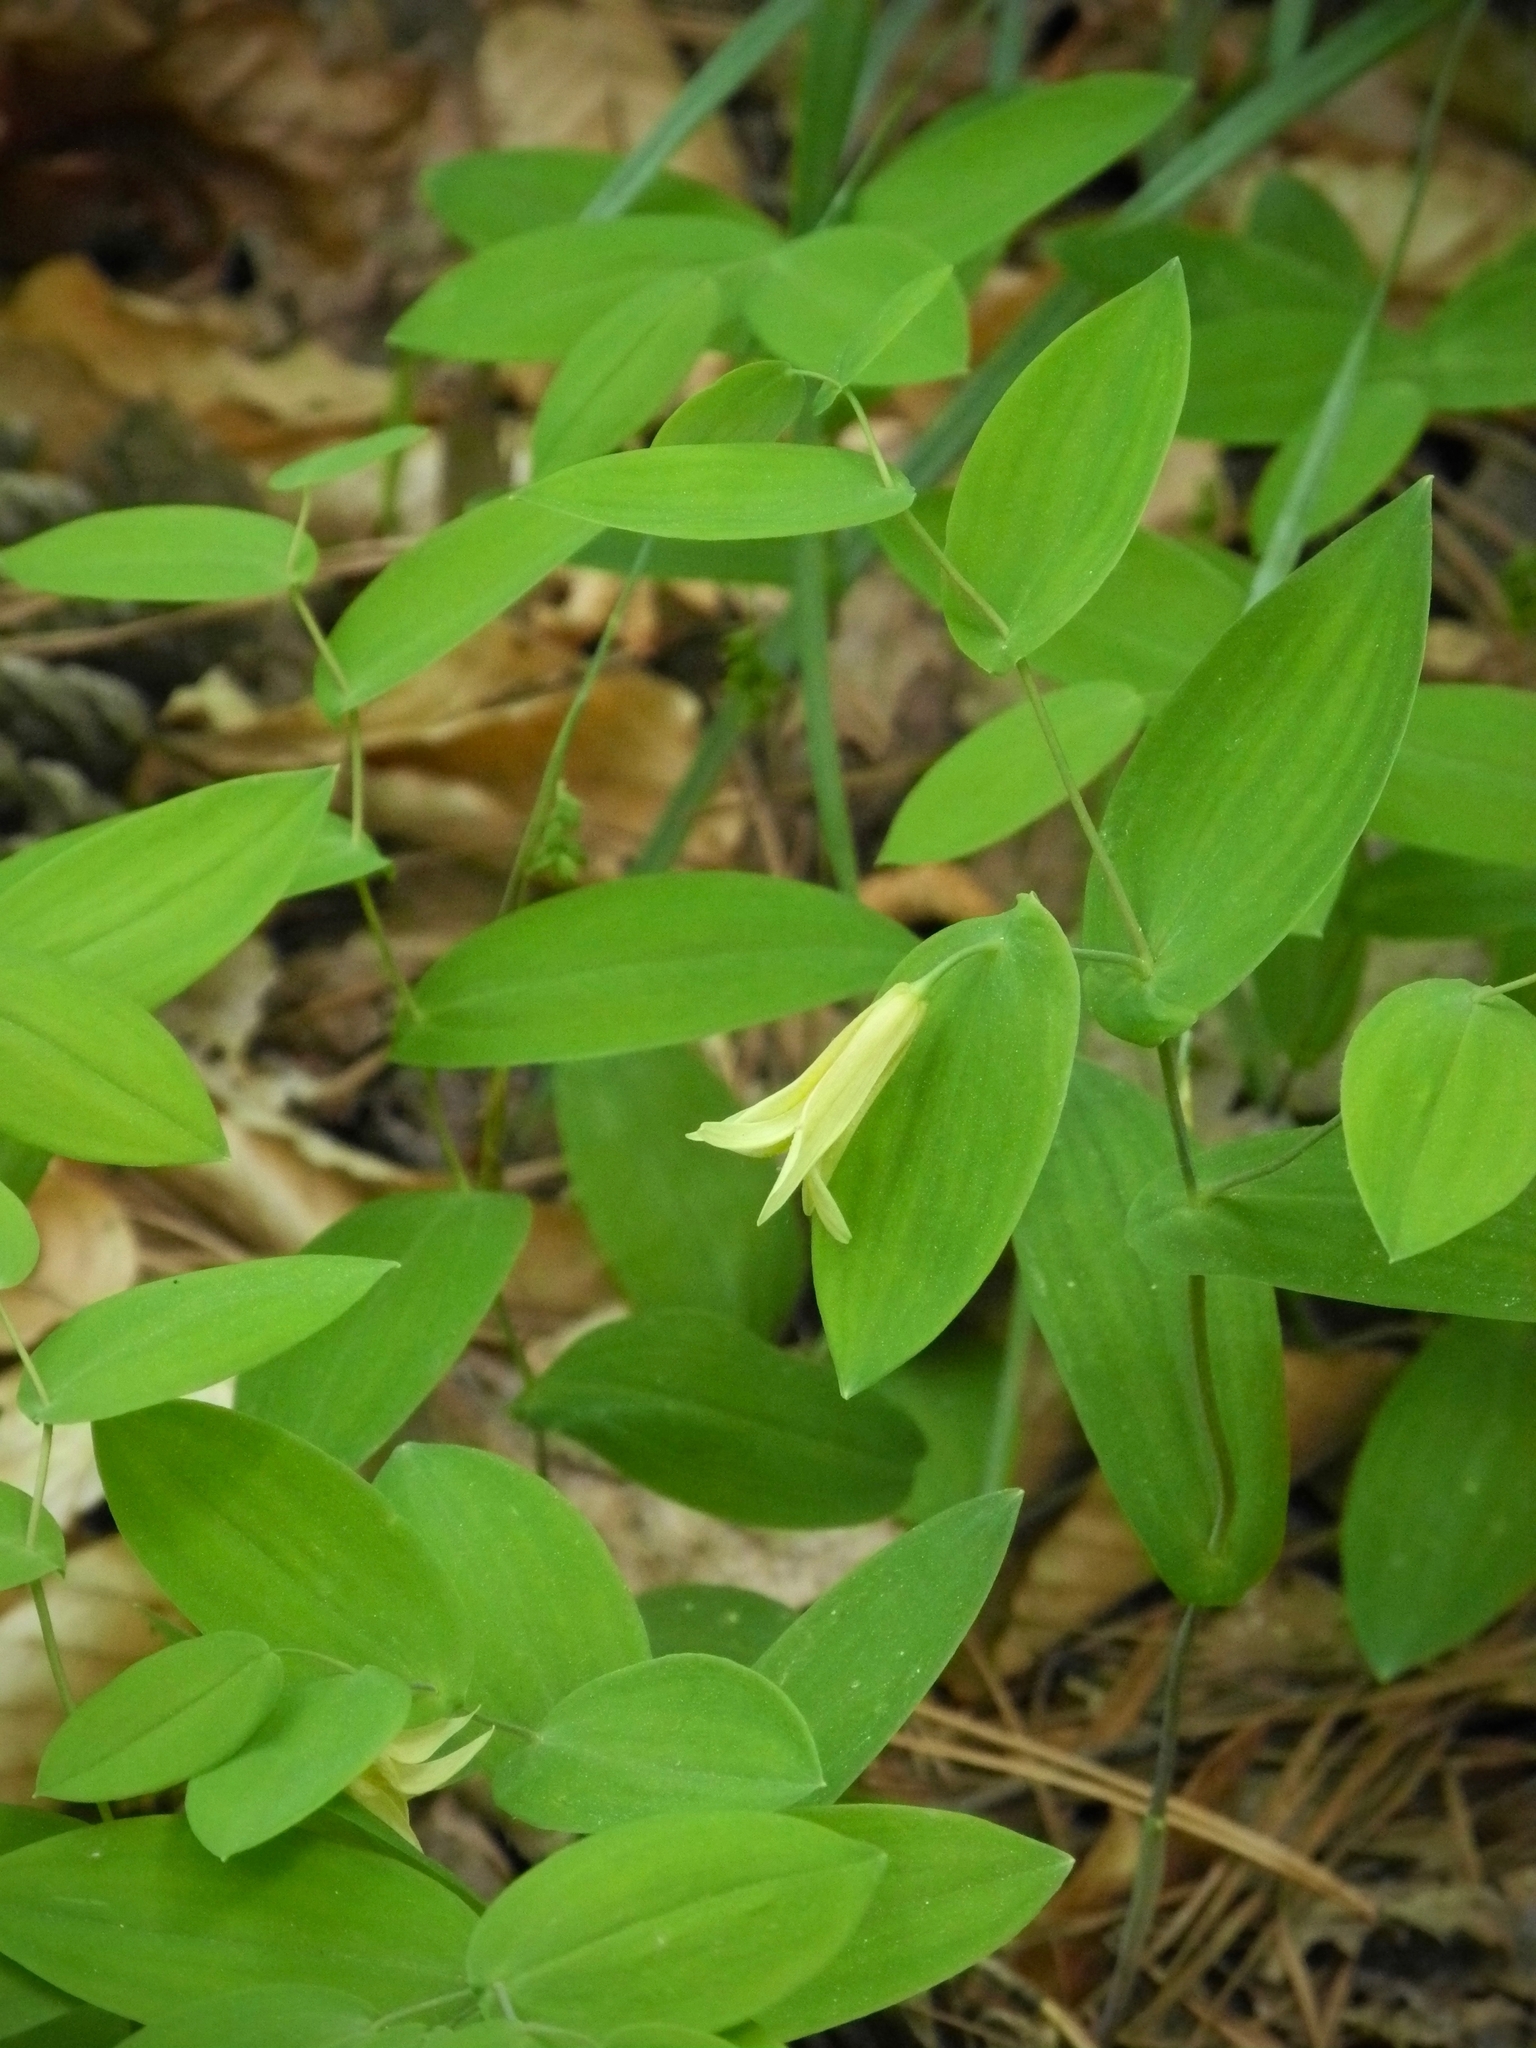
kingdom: Plantae
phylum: Tracheophyta
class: Liliopsida
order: Liliales
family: Colchicaceae
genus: Uvularia
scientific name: Uvularia perfoliata
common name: Perfoliate bellwort
